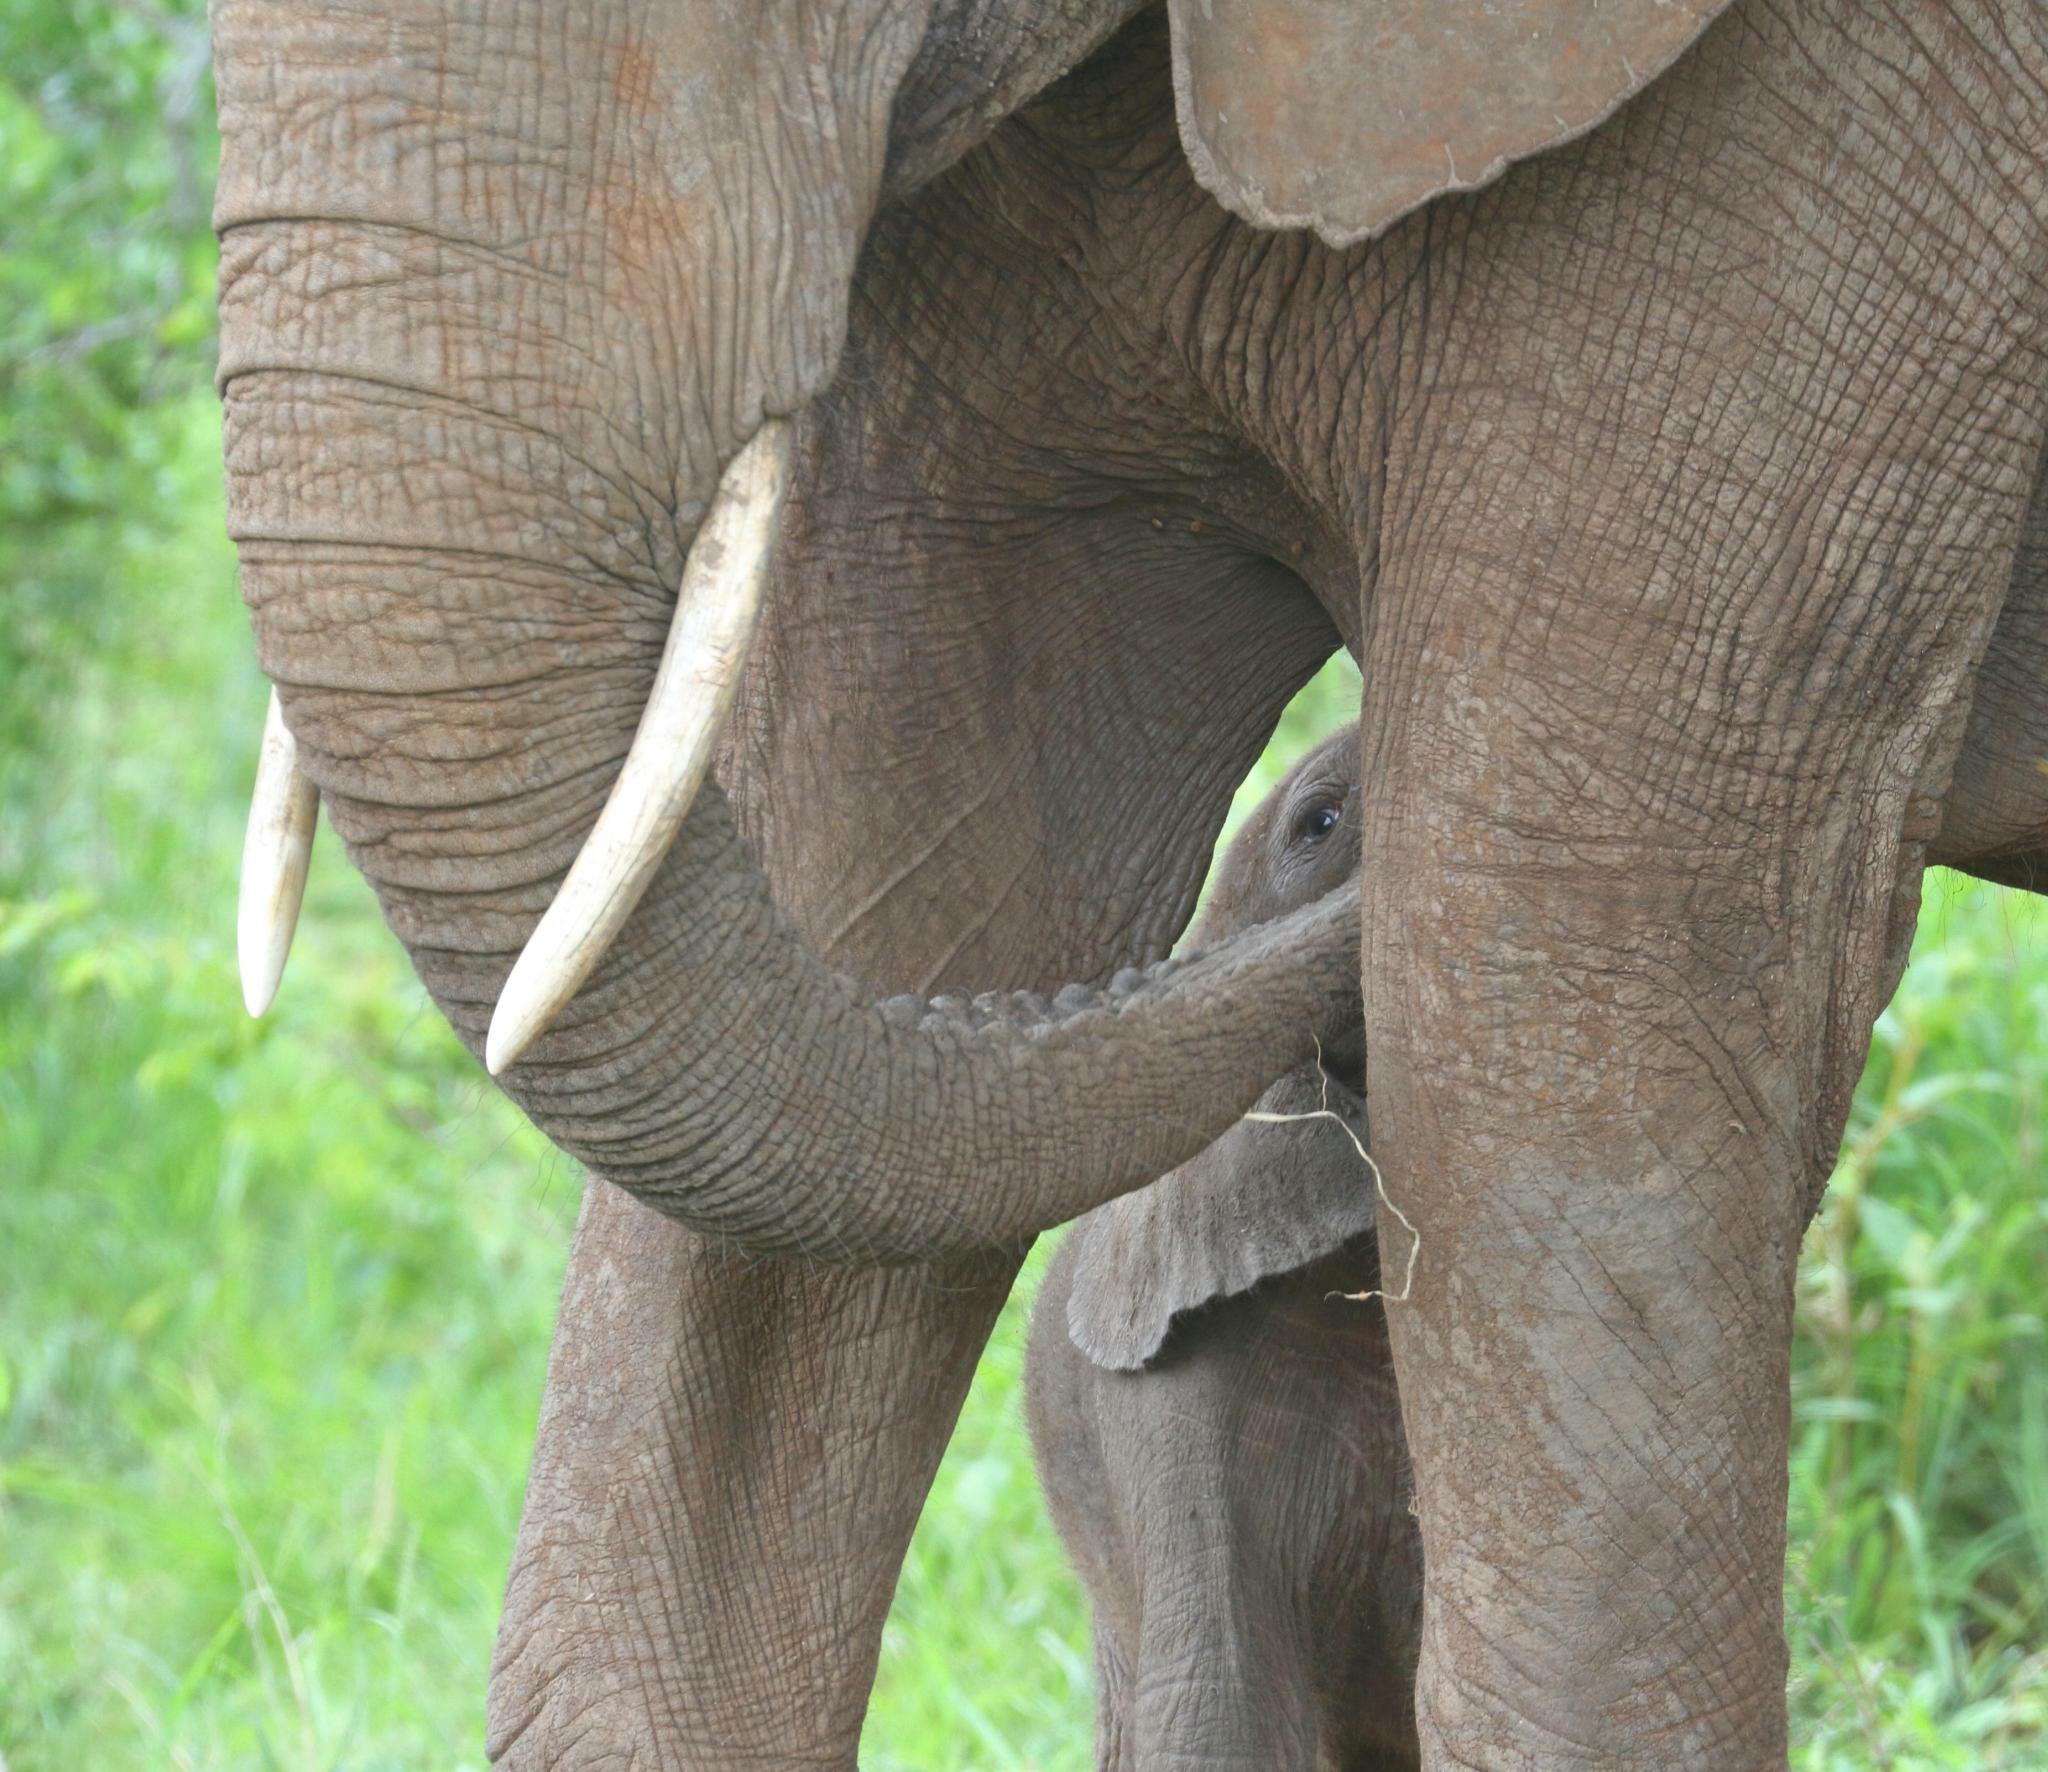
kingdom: Animalia
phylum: Chordata
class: Mammalia
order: Proboscidea
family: Elephantidae
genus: Loxodonta
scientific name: Loxodonta africana
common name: African elephant
